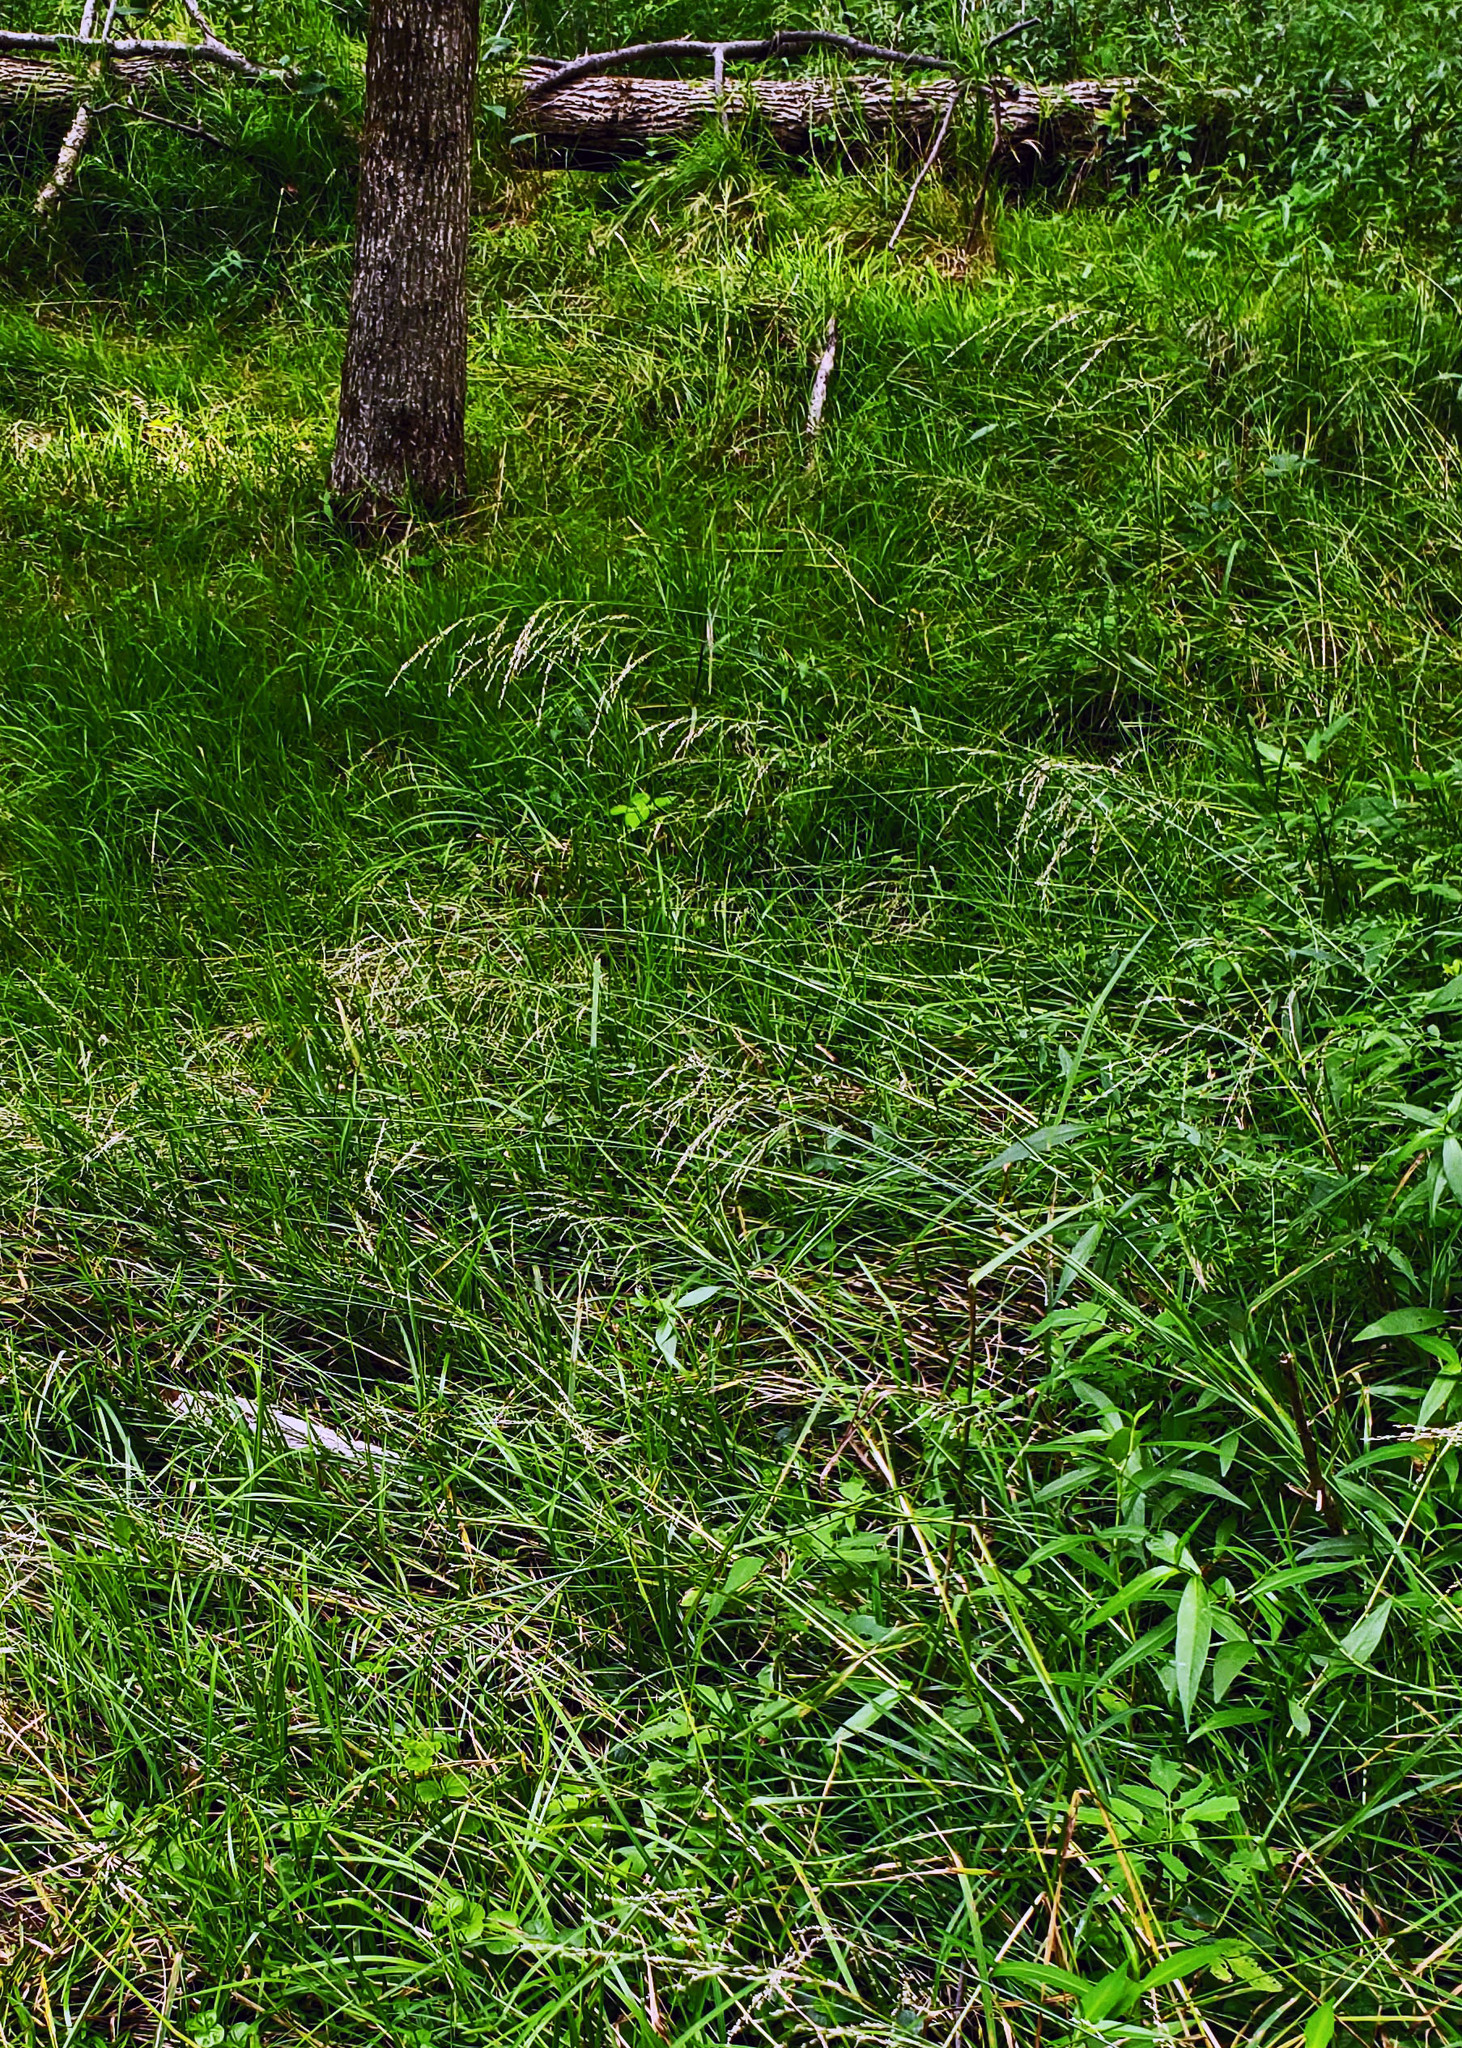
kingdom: Plantae
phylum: Tracheophyta
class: Liliopsida
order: Poales
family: Poaceae
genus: Glyceria
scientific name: Glyceria striata
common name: Fowl manna grass
